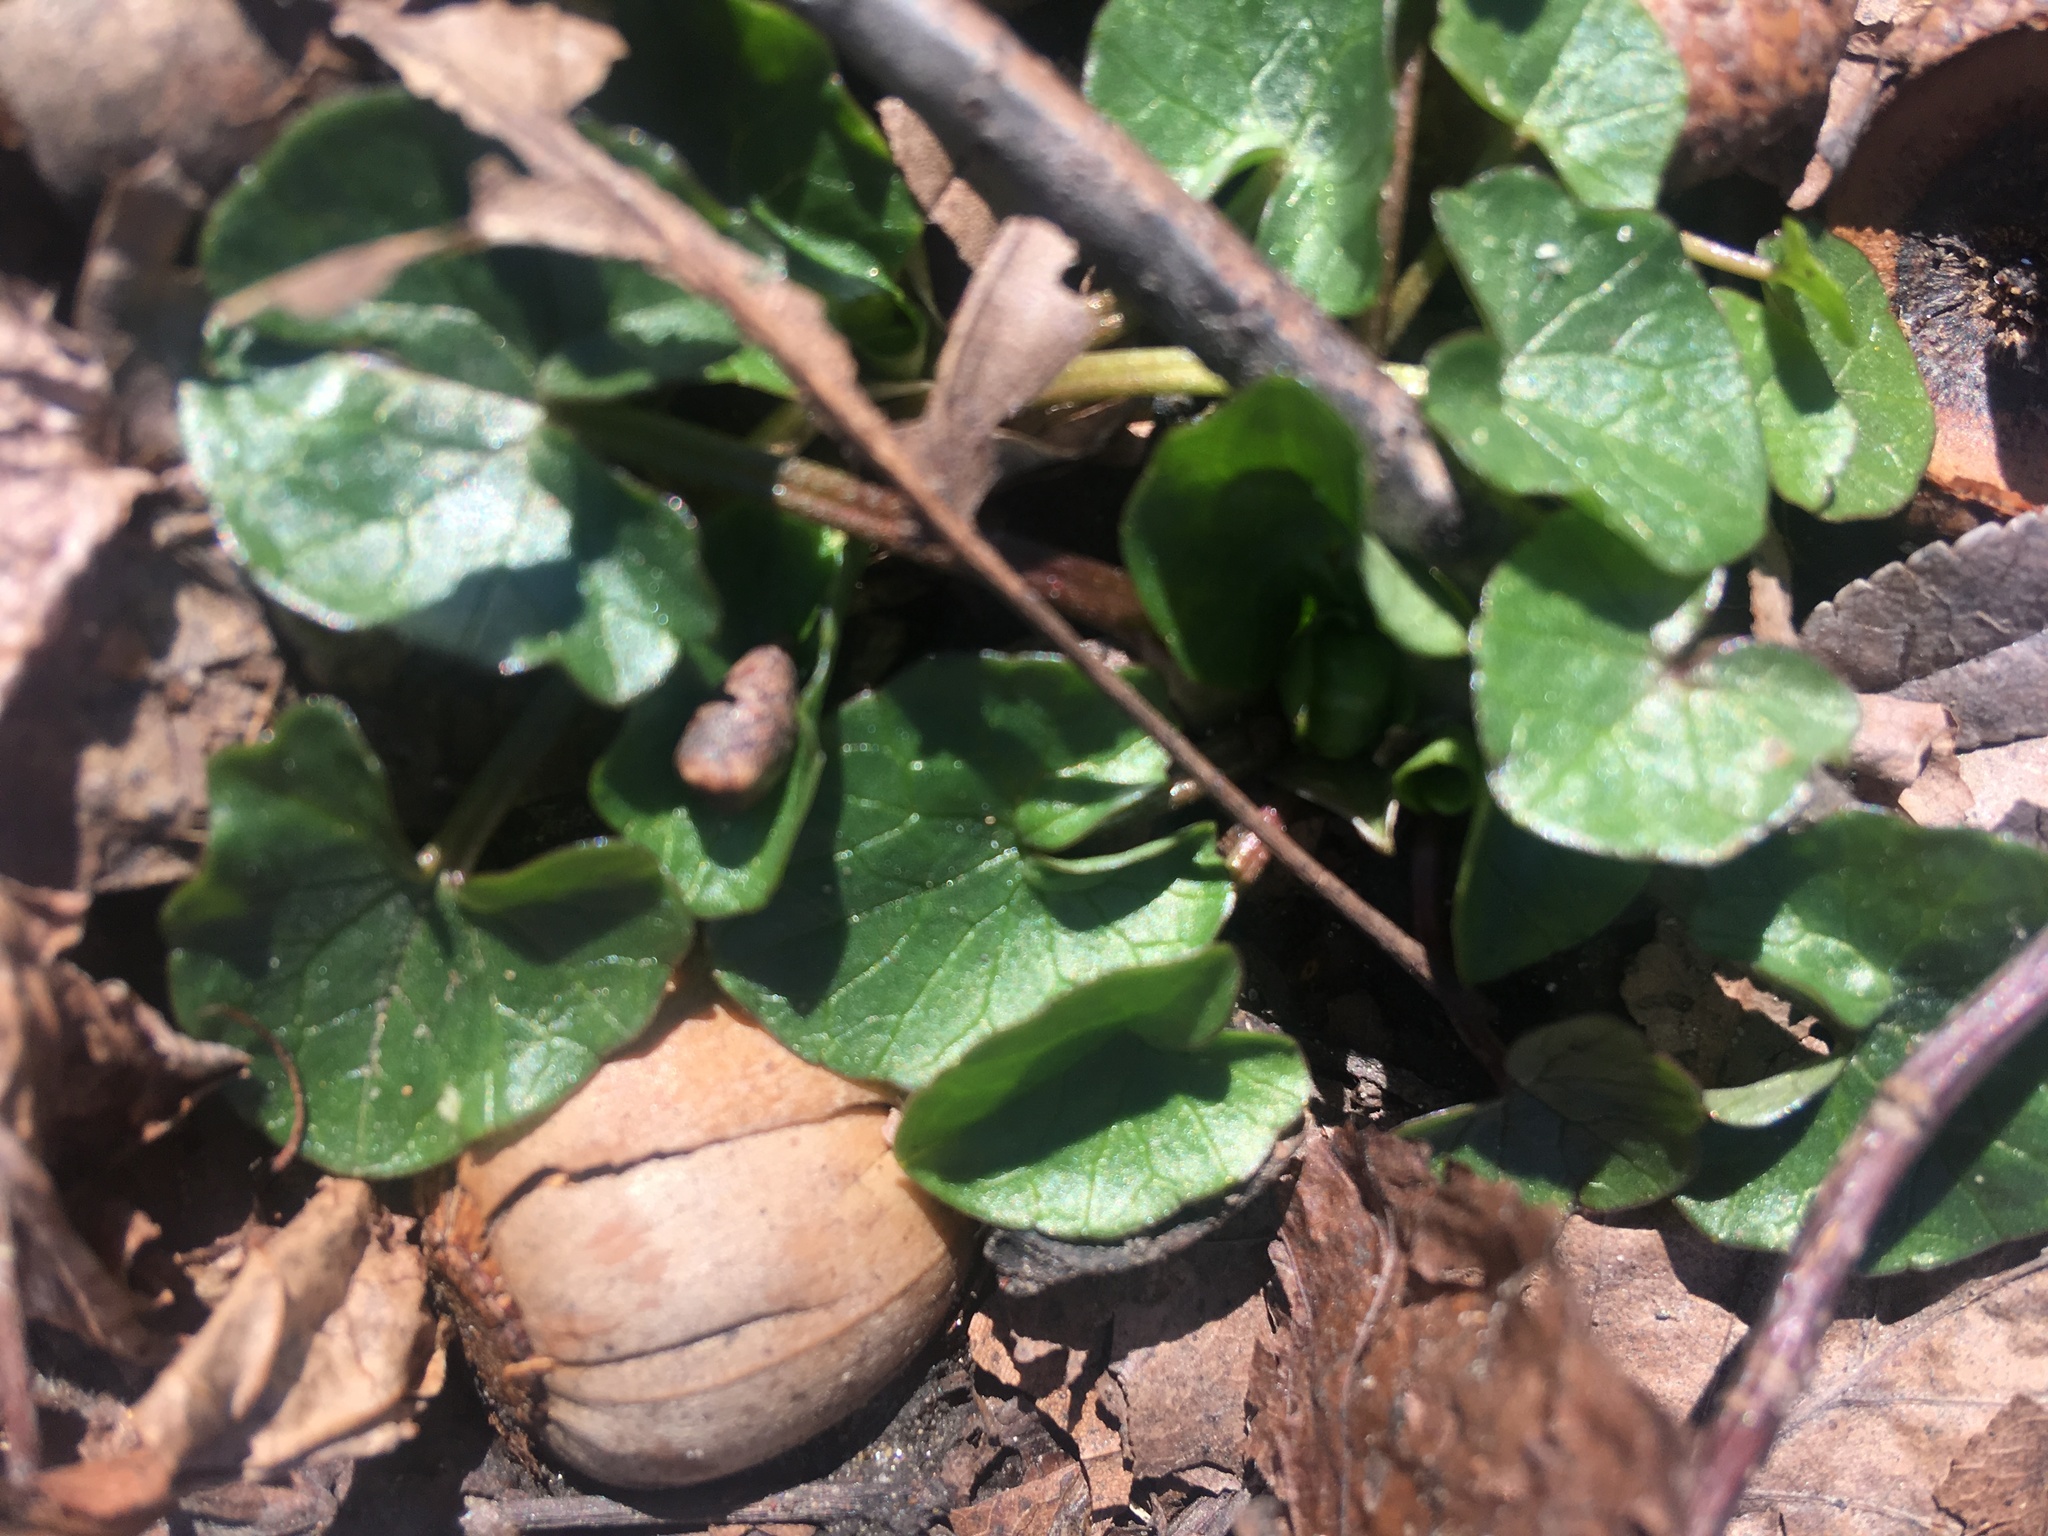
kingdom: Plantae
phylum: Tracheophyta
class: Magnoliopsida
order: Ranunculales
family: Ranunculaceae
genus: Ficaria
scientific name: Ficaria verna
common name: Lesser celandine
